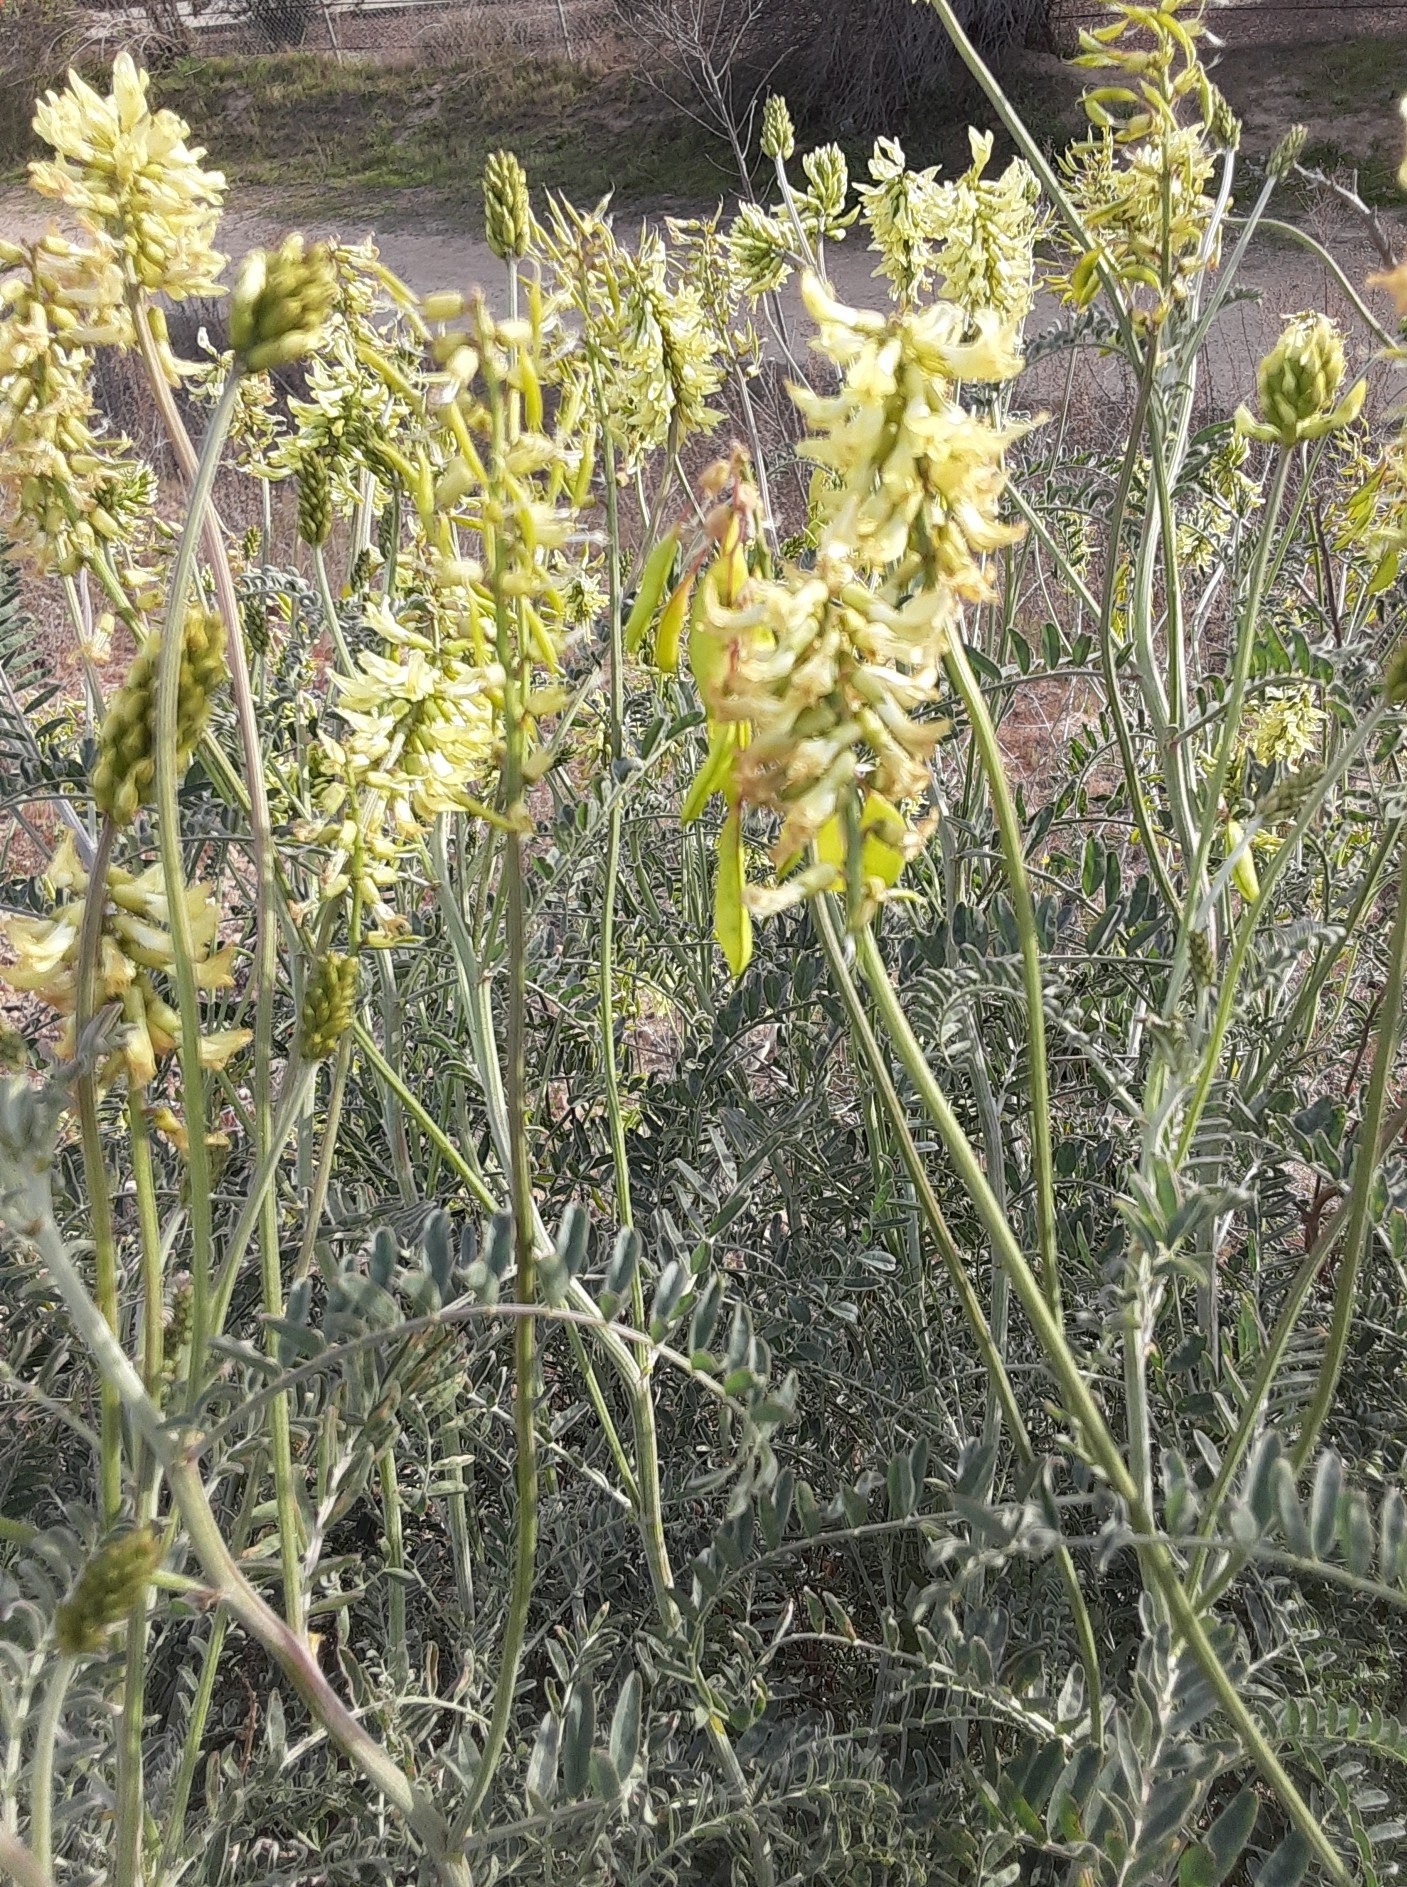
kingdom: Plantae
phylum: Tracheophyta
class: Magnoliopsida
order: Fabales
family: Fabaceae
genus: Astragalus
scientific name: Astragalus trichopodus
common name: Santa barbara milk-vetch
